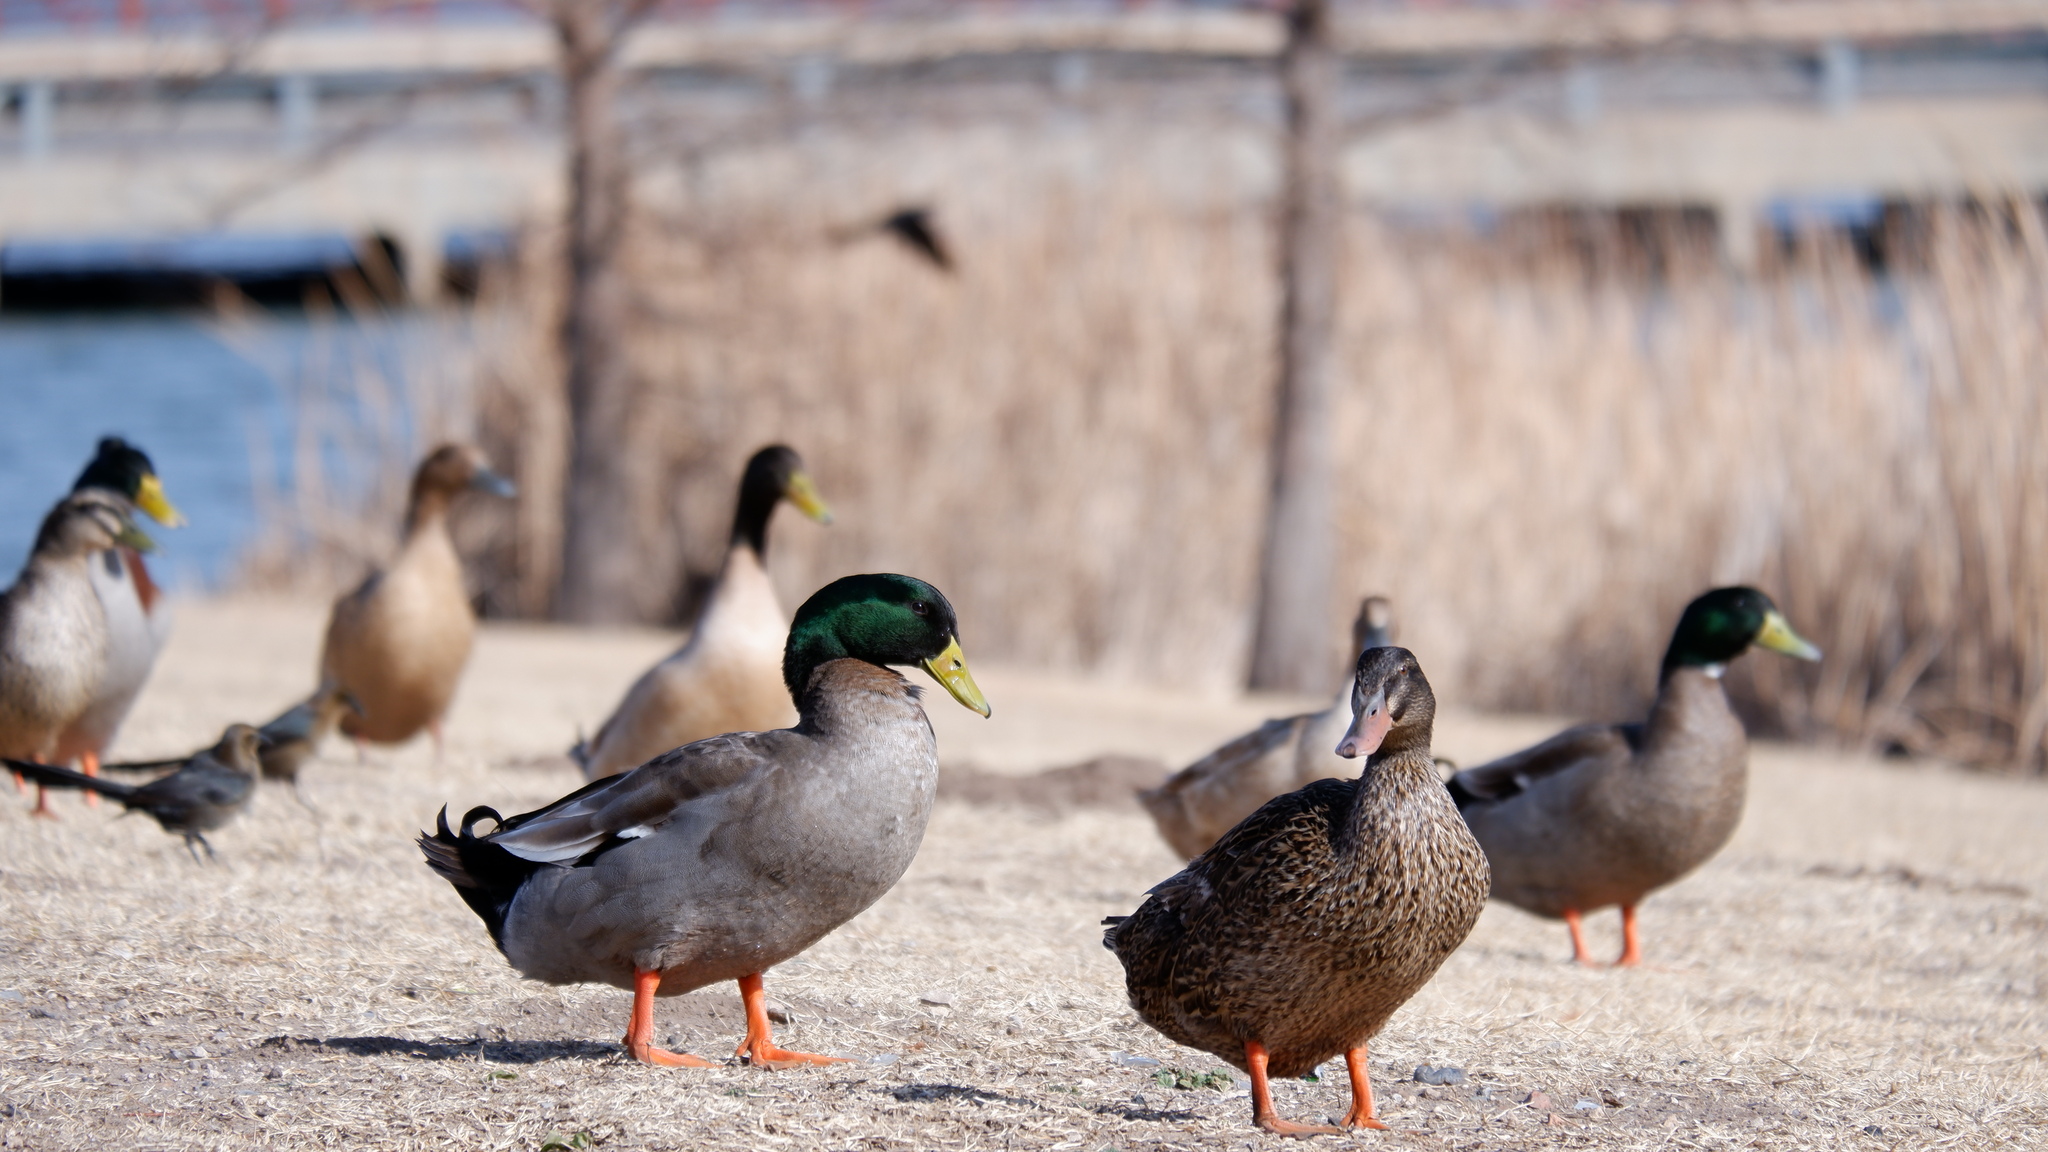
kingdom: Animalia
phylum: Chordata
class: Aves
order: Anseriformes
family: Anatidae
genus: Anas
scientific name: Anas platyrhynchos
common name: Mallard
